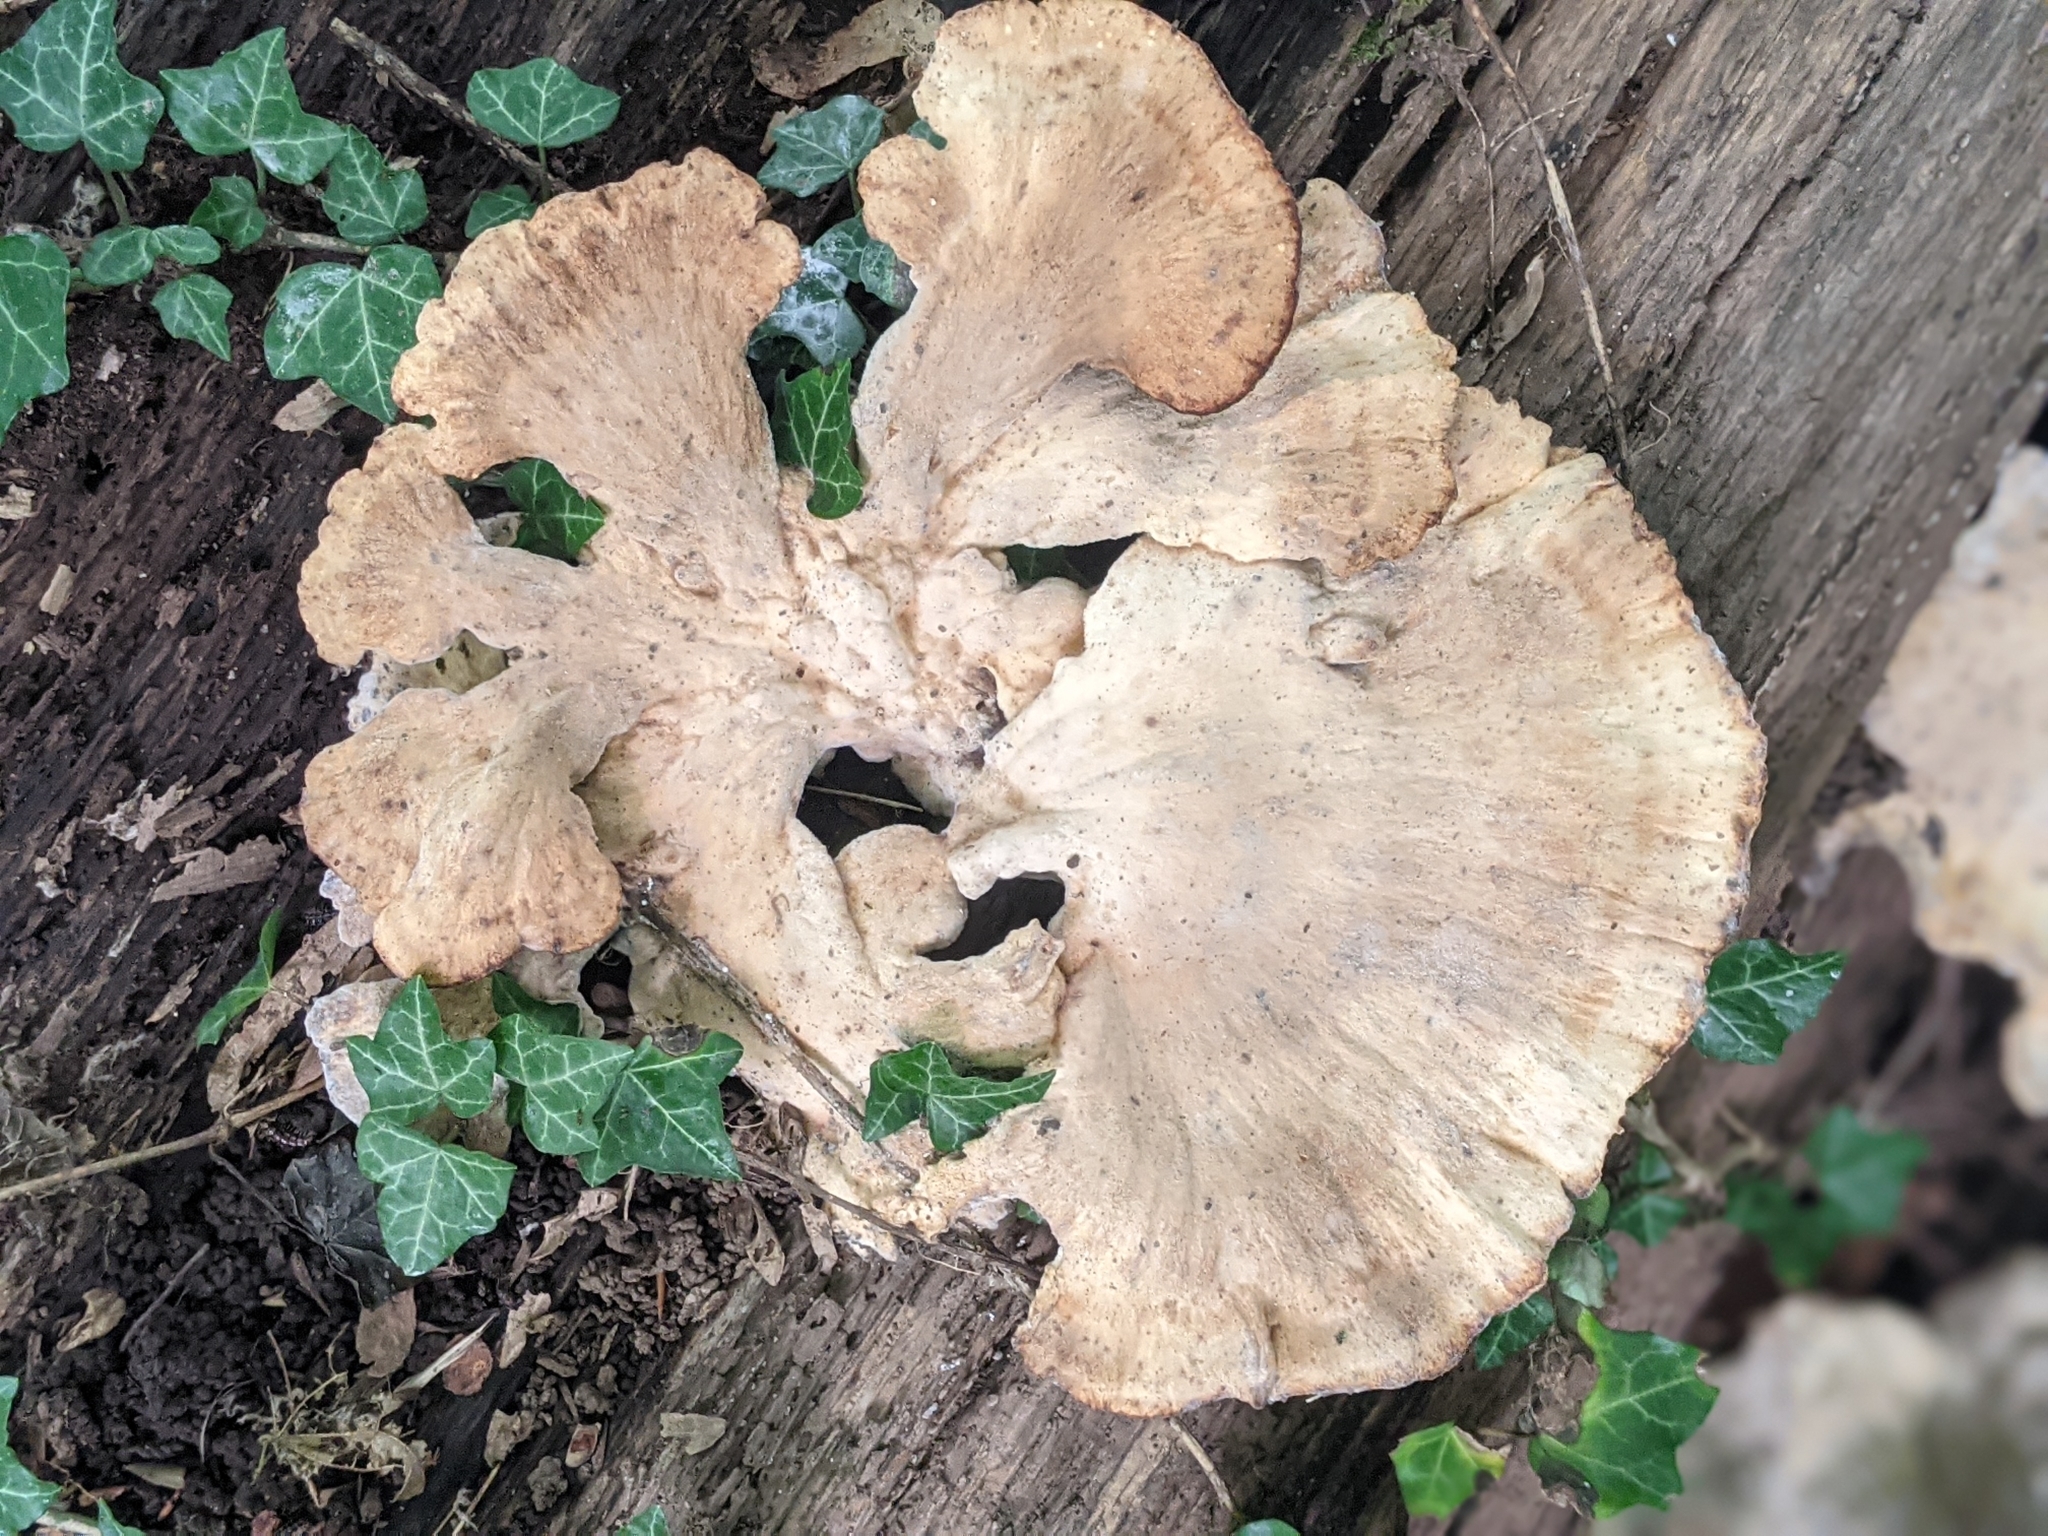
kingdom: Fungi
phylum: Basidiomycota
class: Agaricomycetes
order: Polyporales
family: Laetiporaceae
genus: Laetiporus
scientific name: Laetiporus sulphureus
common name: Chicken of the woods
